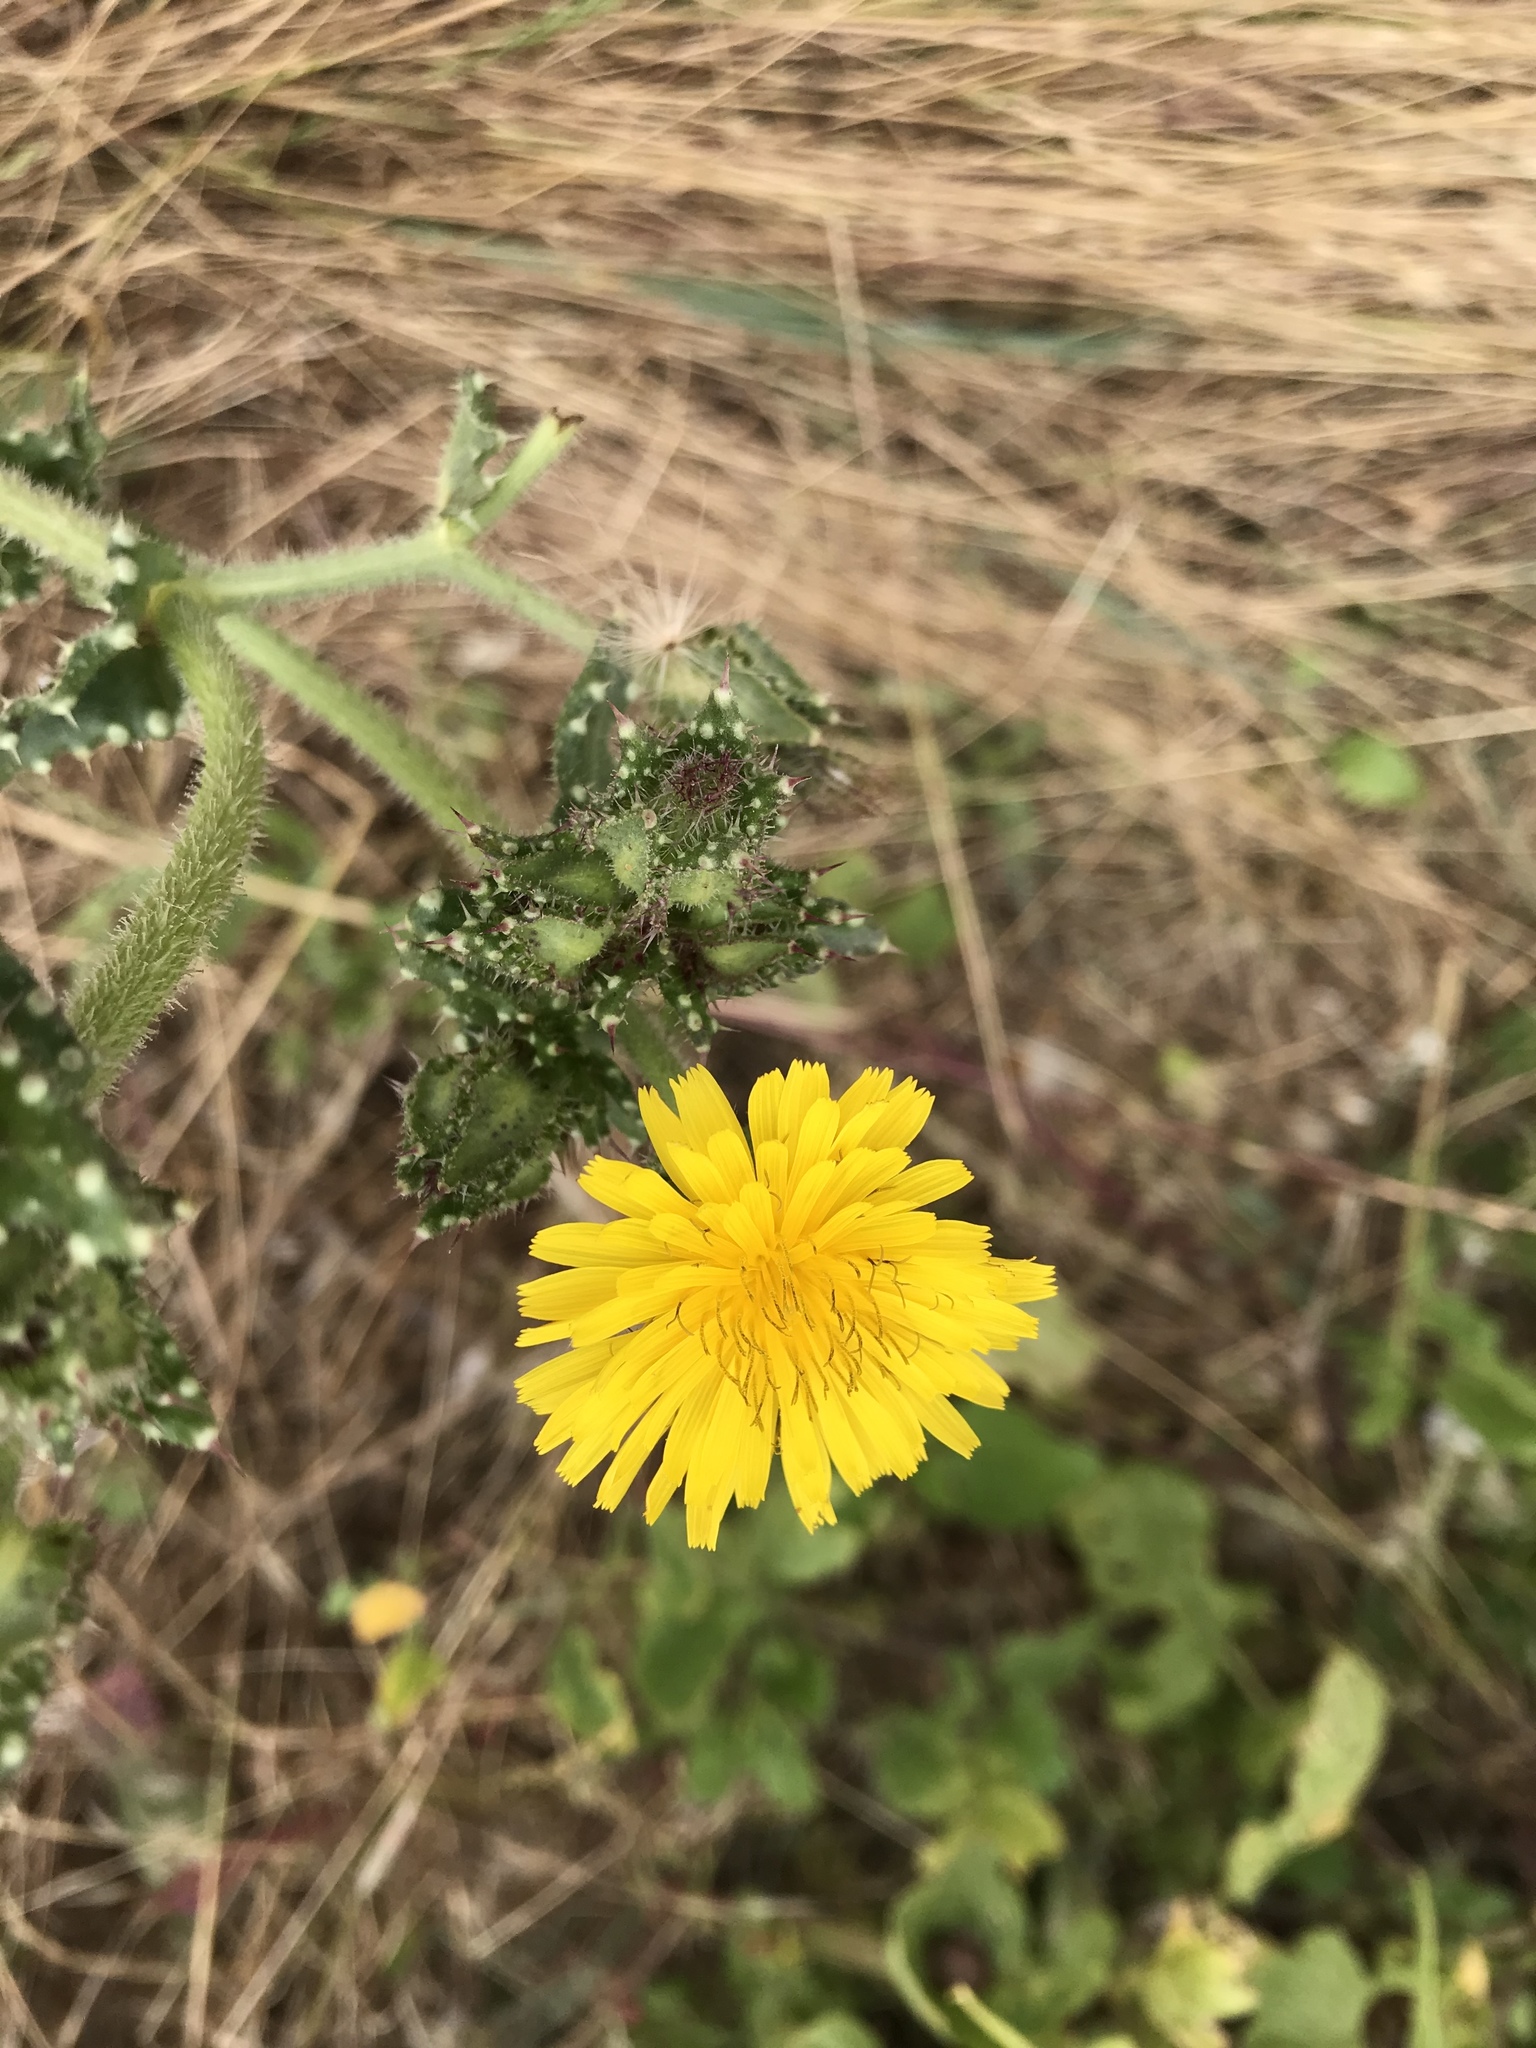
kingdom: Plantae
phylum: Tracheophyta
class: Magnoliopsida
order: Asterales
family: Asteraceae
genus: Helminthotheca
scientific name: Helminthotheca echioides
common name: Ox-tongue
